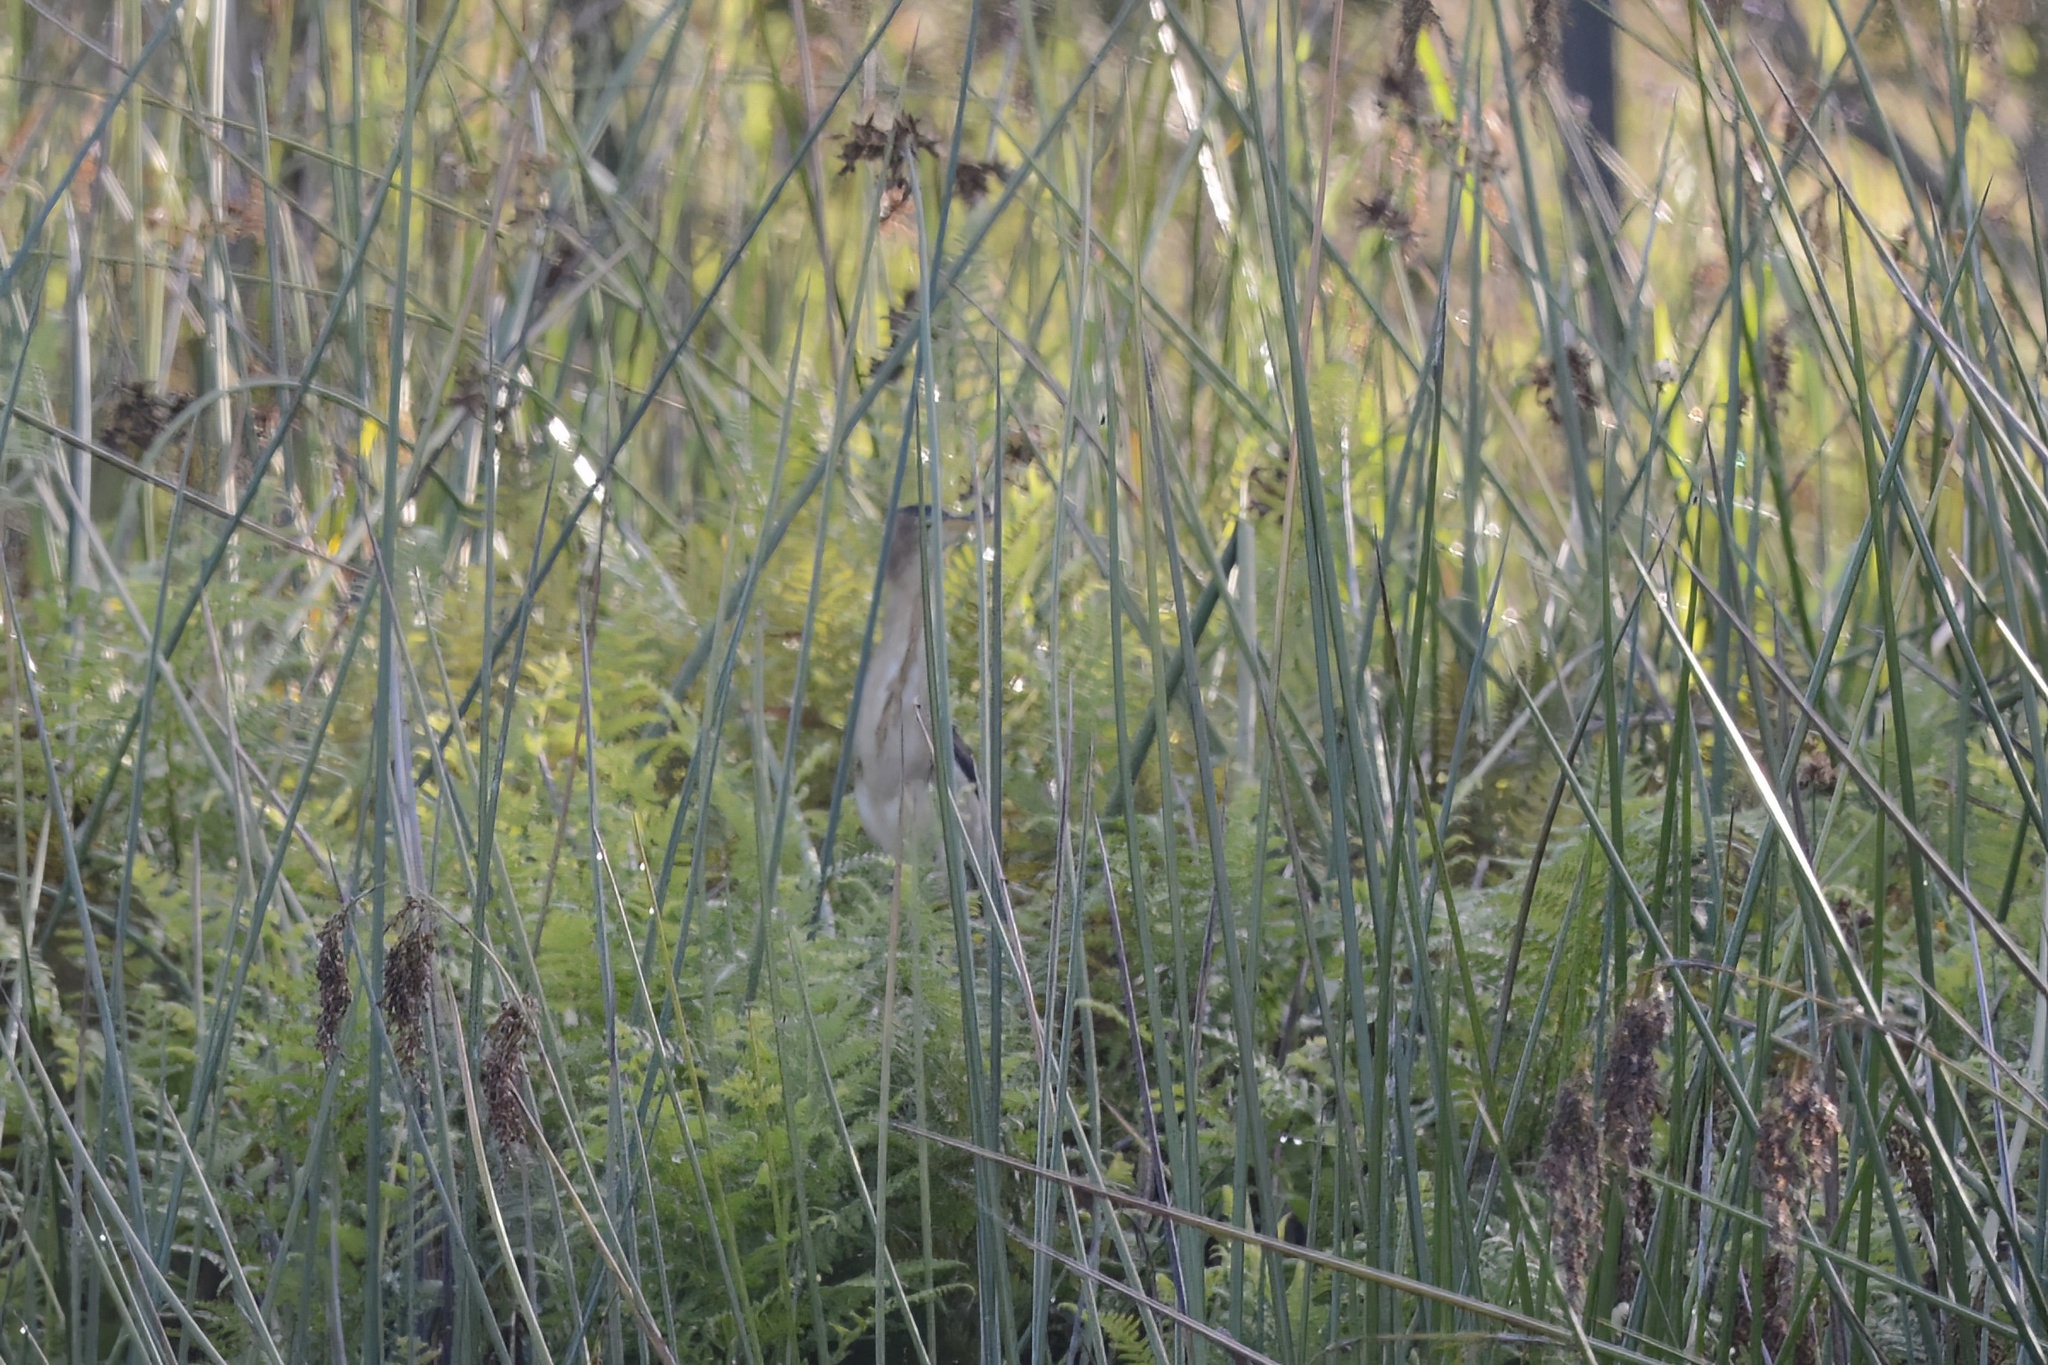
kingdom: Animalia
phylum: Chordata
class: Aves
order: Pelecaniformes
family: Ardeidae
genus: Ixobrychus
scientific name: Ixobrychus dubius
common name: Black-backed bittern
